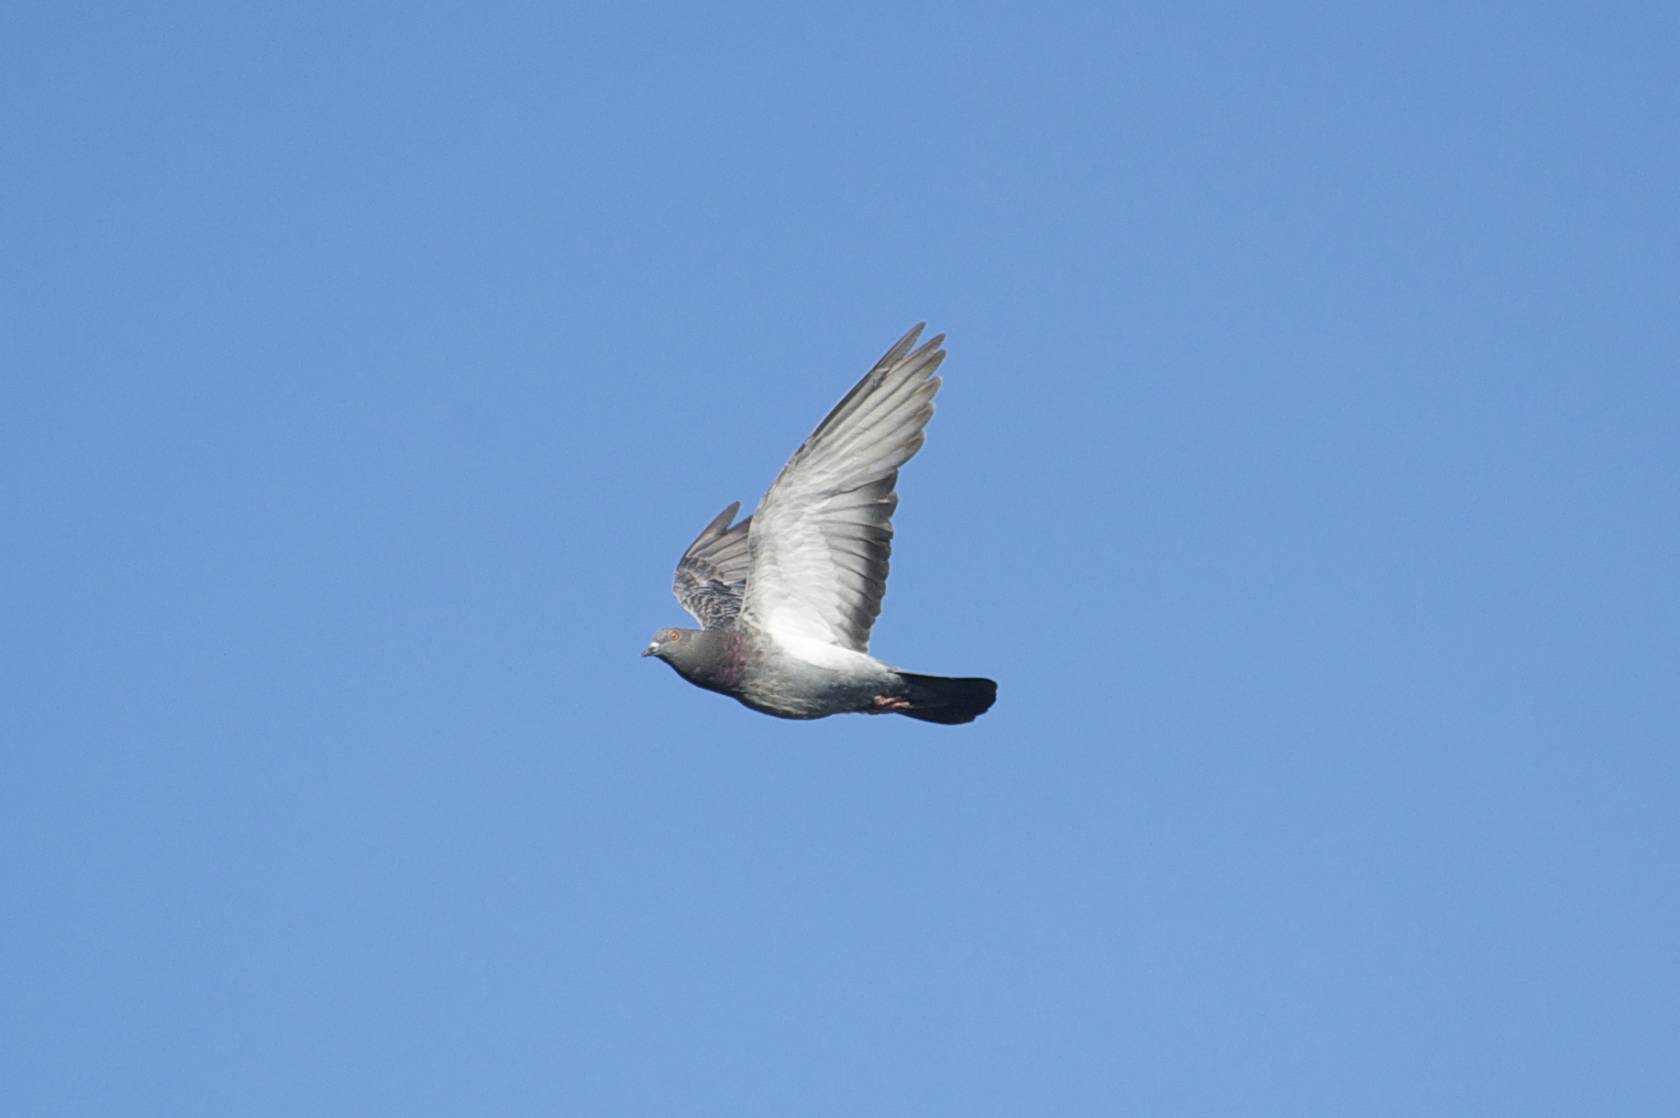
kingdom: Animalia
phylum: Chordata
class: Aves
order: Columbiformes
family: Columbidae
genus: Columba
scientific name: Columba livia
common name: Rock pigeon
